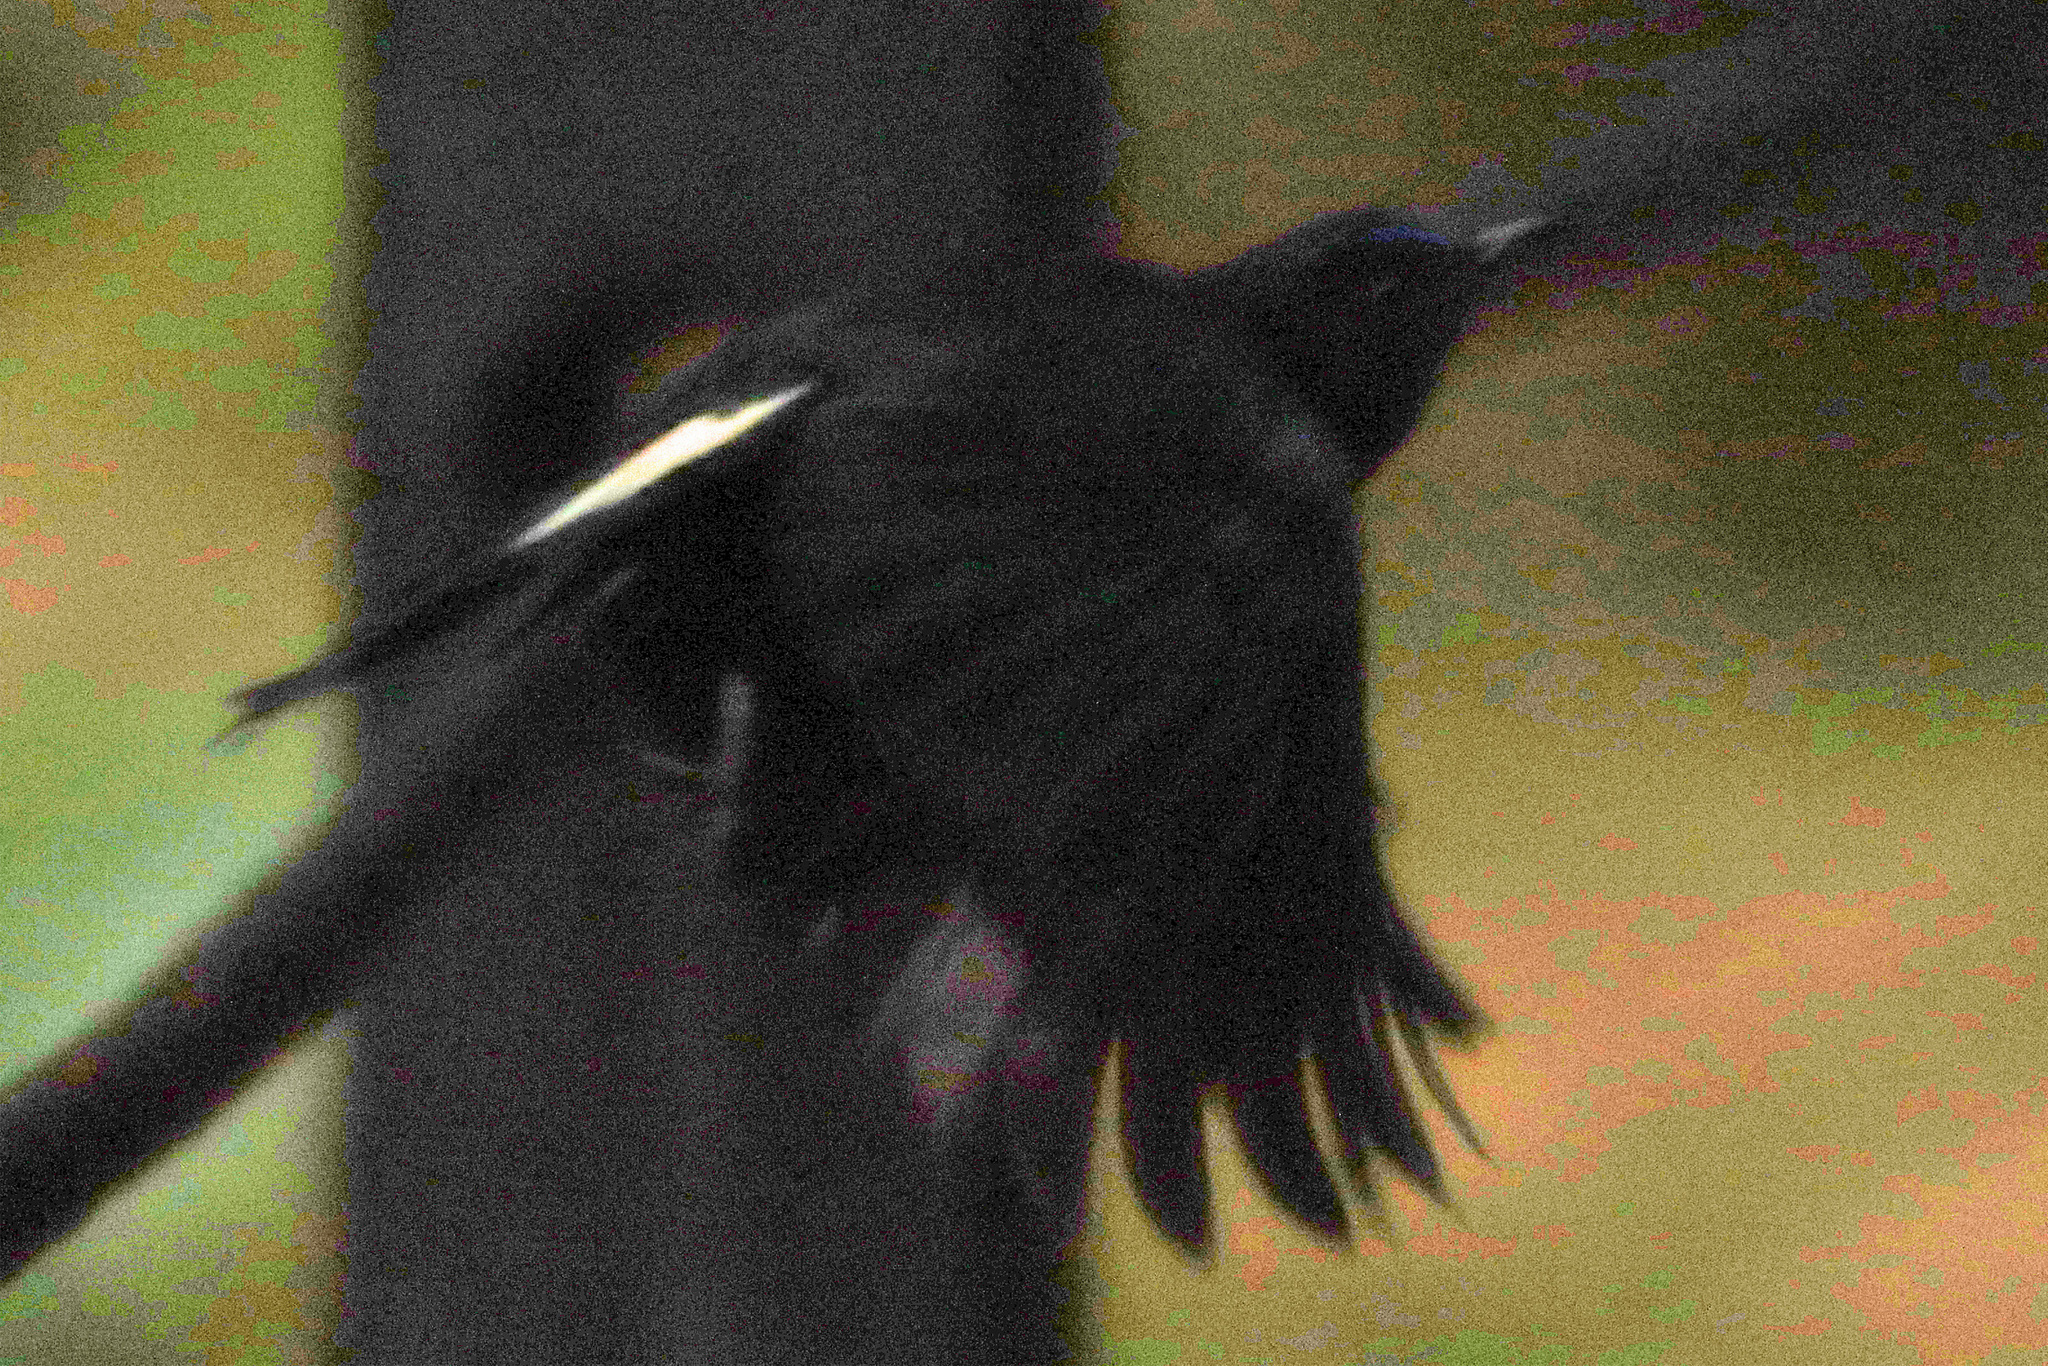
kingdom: Animalia
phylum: Chordata
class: Aves
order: Passeriformes
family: Muscicapidae
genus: Myiomela
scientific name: Myiomela leucura
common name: White-tailed robin
